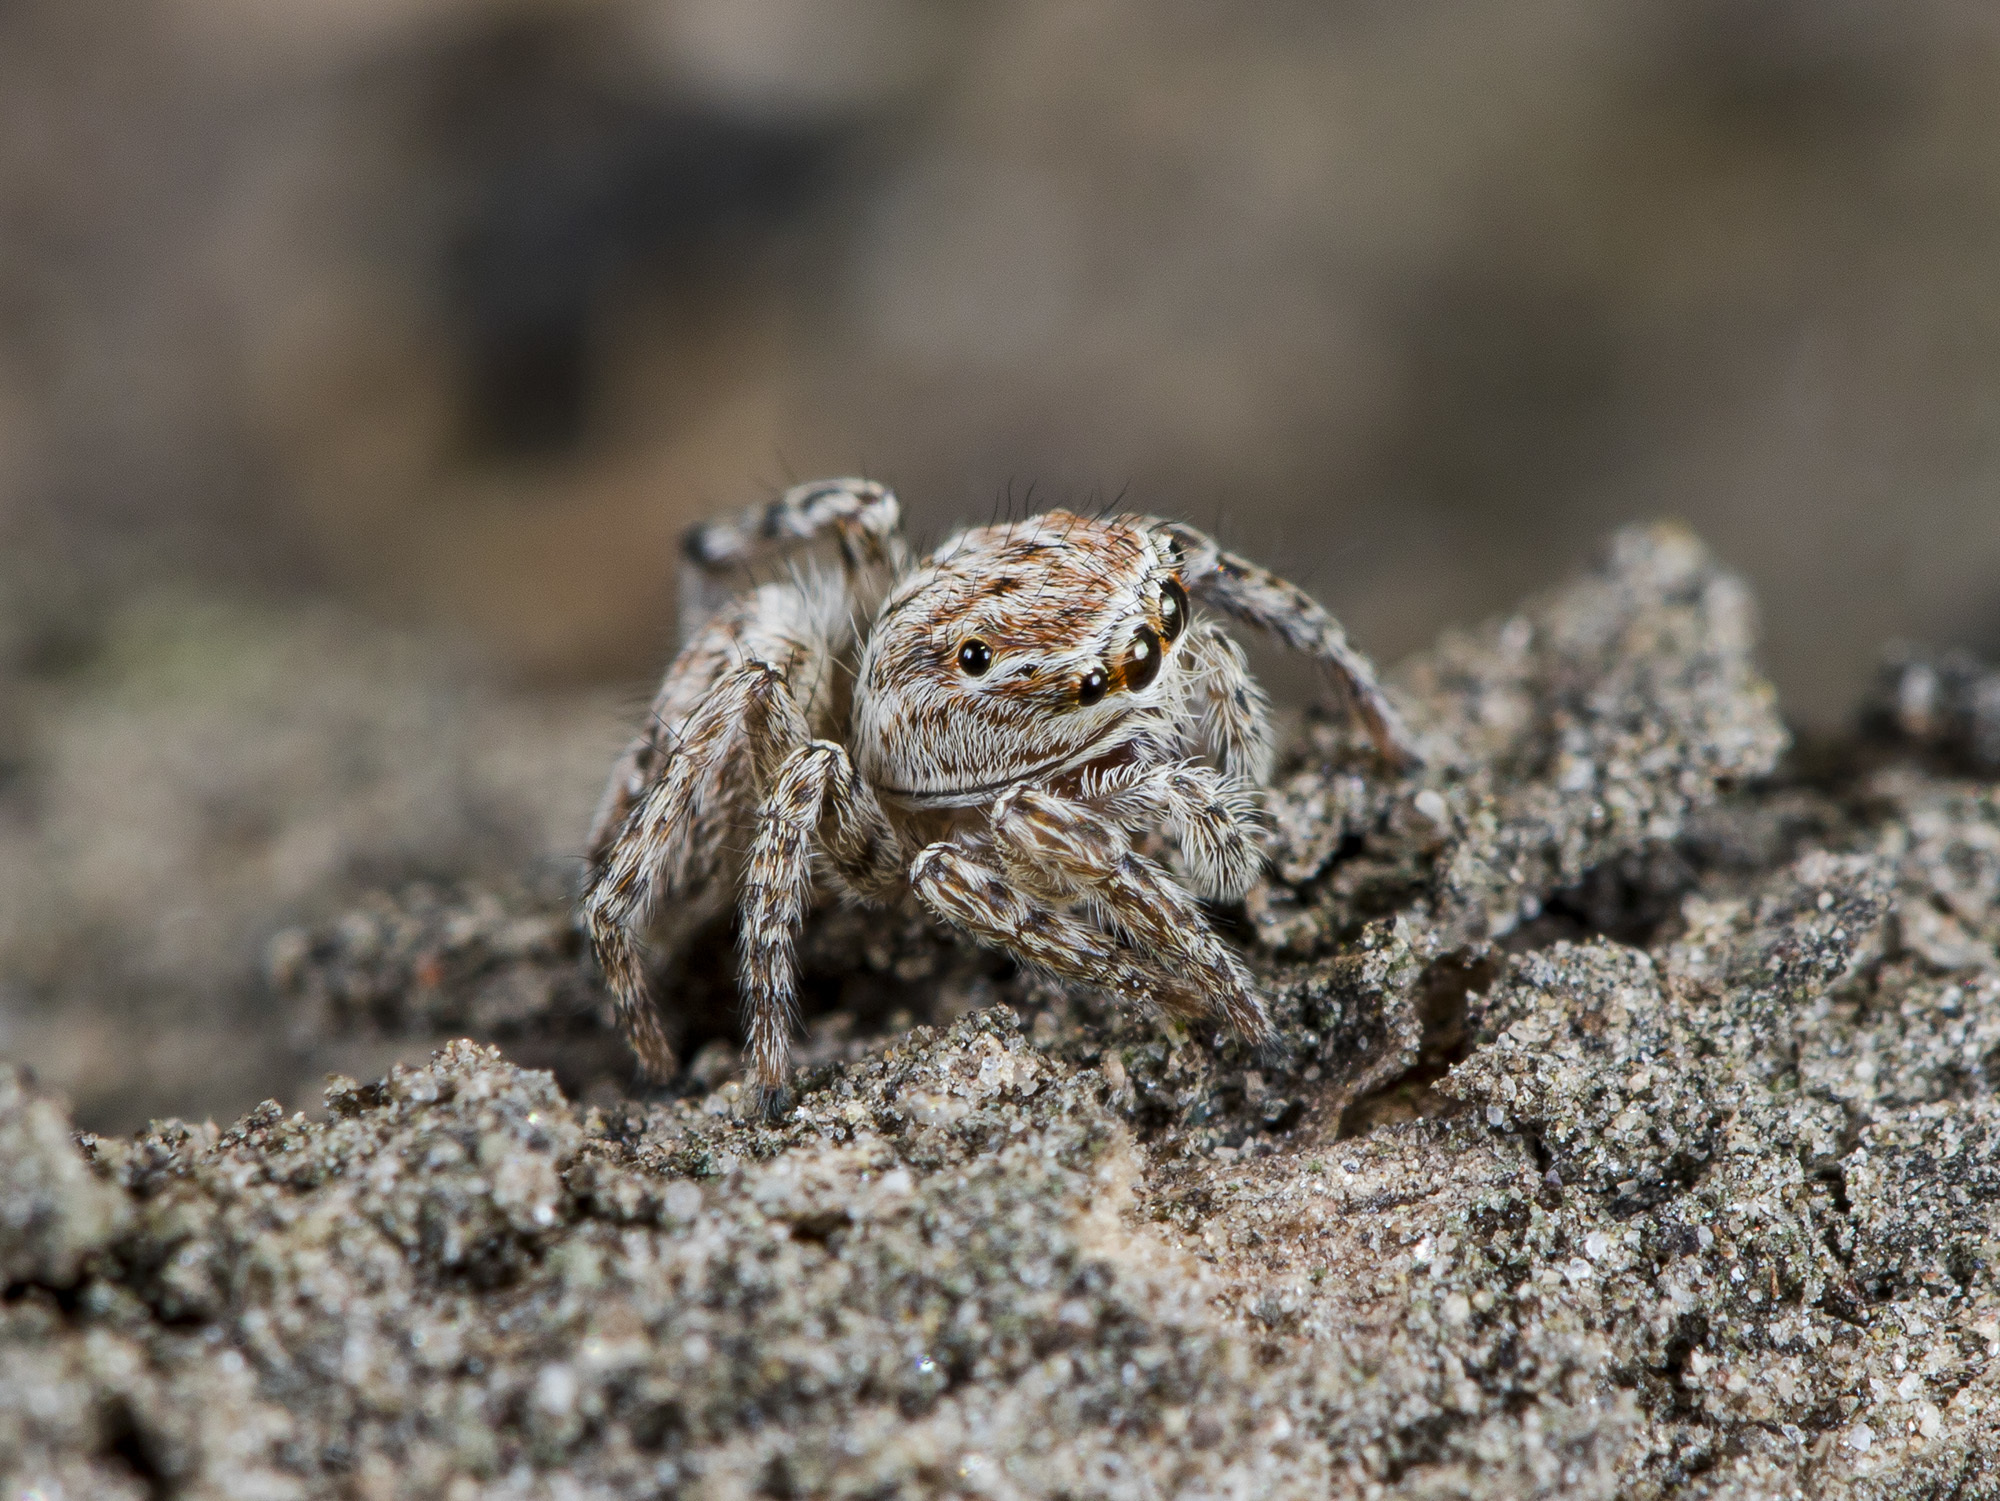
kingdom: Animalia
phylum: Arthropoda
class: Arachnida
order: Araneae
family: Salticidae
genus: Attulus
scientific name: Attulus nenilini
